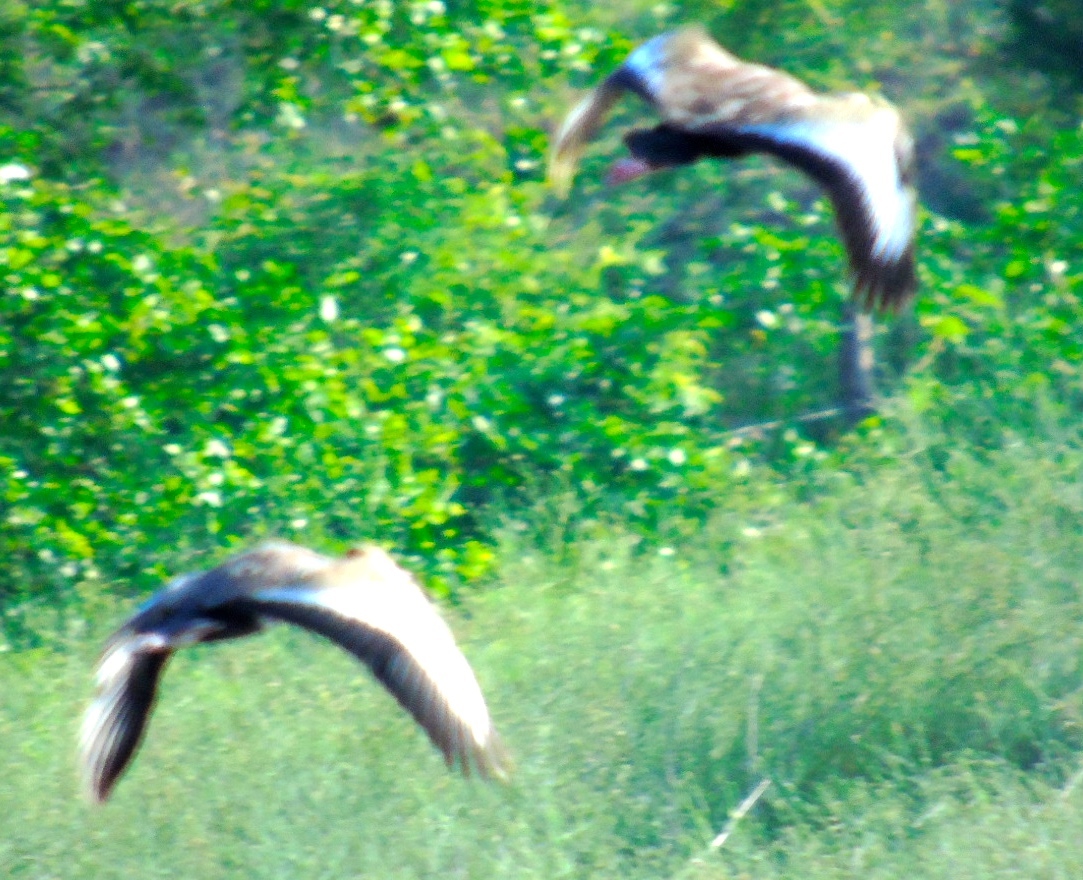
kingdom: Animalia
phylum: Chordata
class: Aves
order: Anseriformes
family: Anatidae
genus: Dendrocygna
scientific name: Dendrocygna autumnalis
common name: Black-bellied whistling duck
